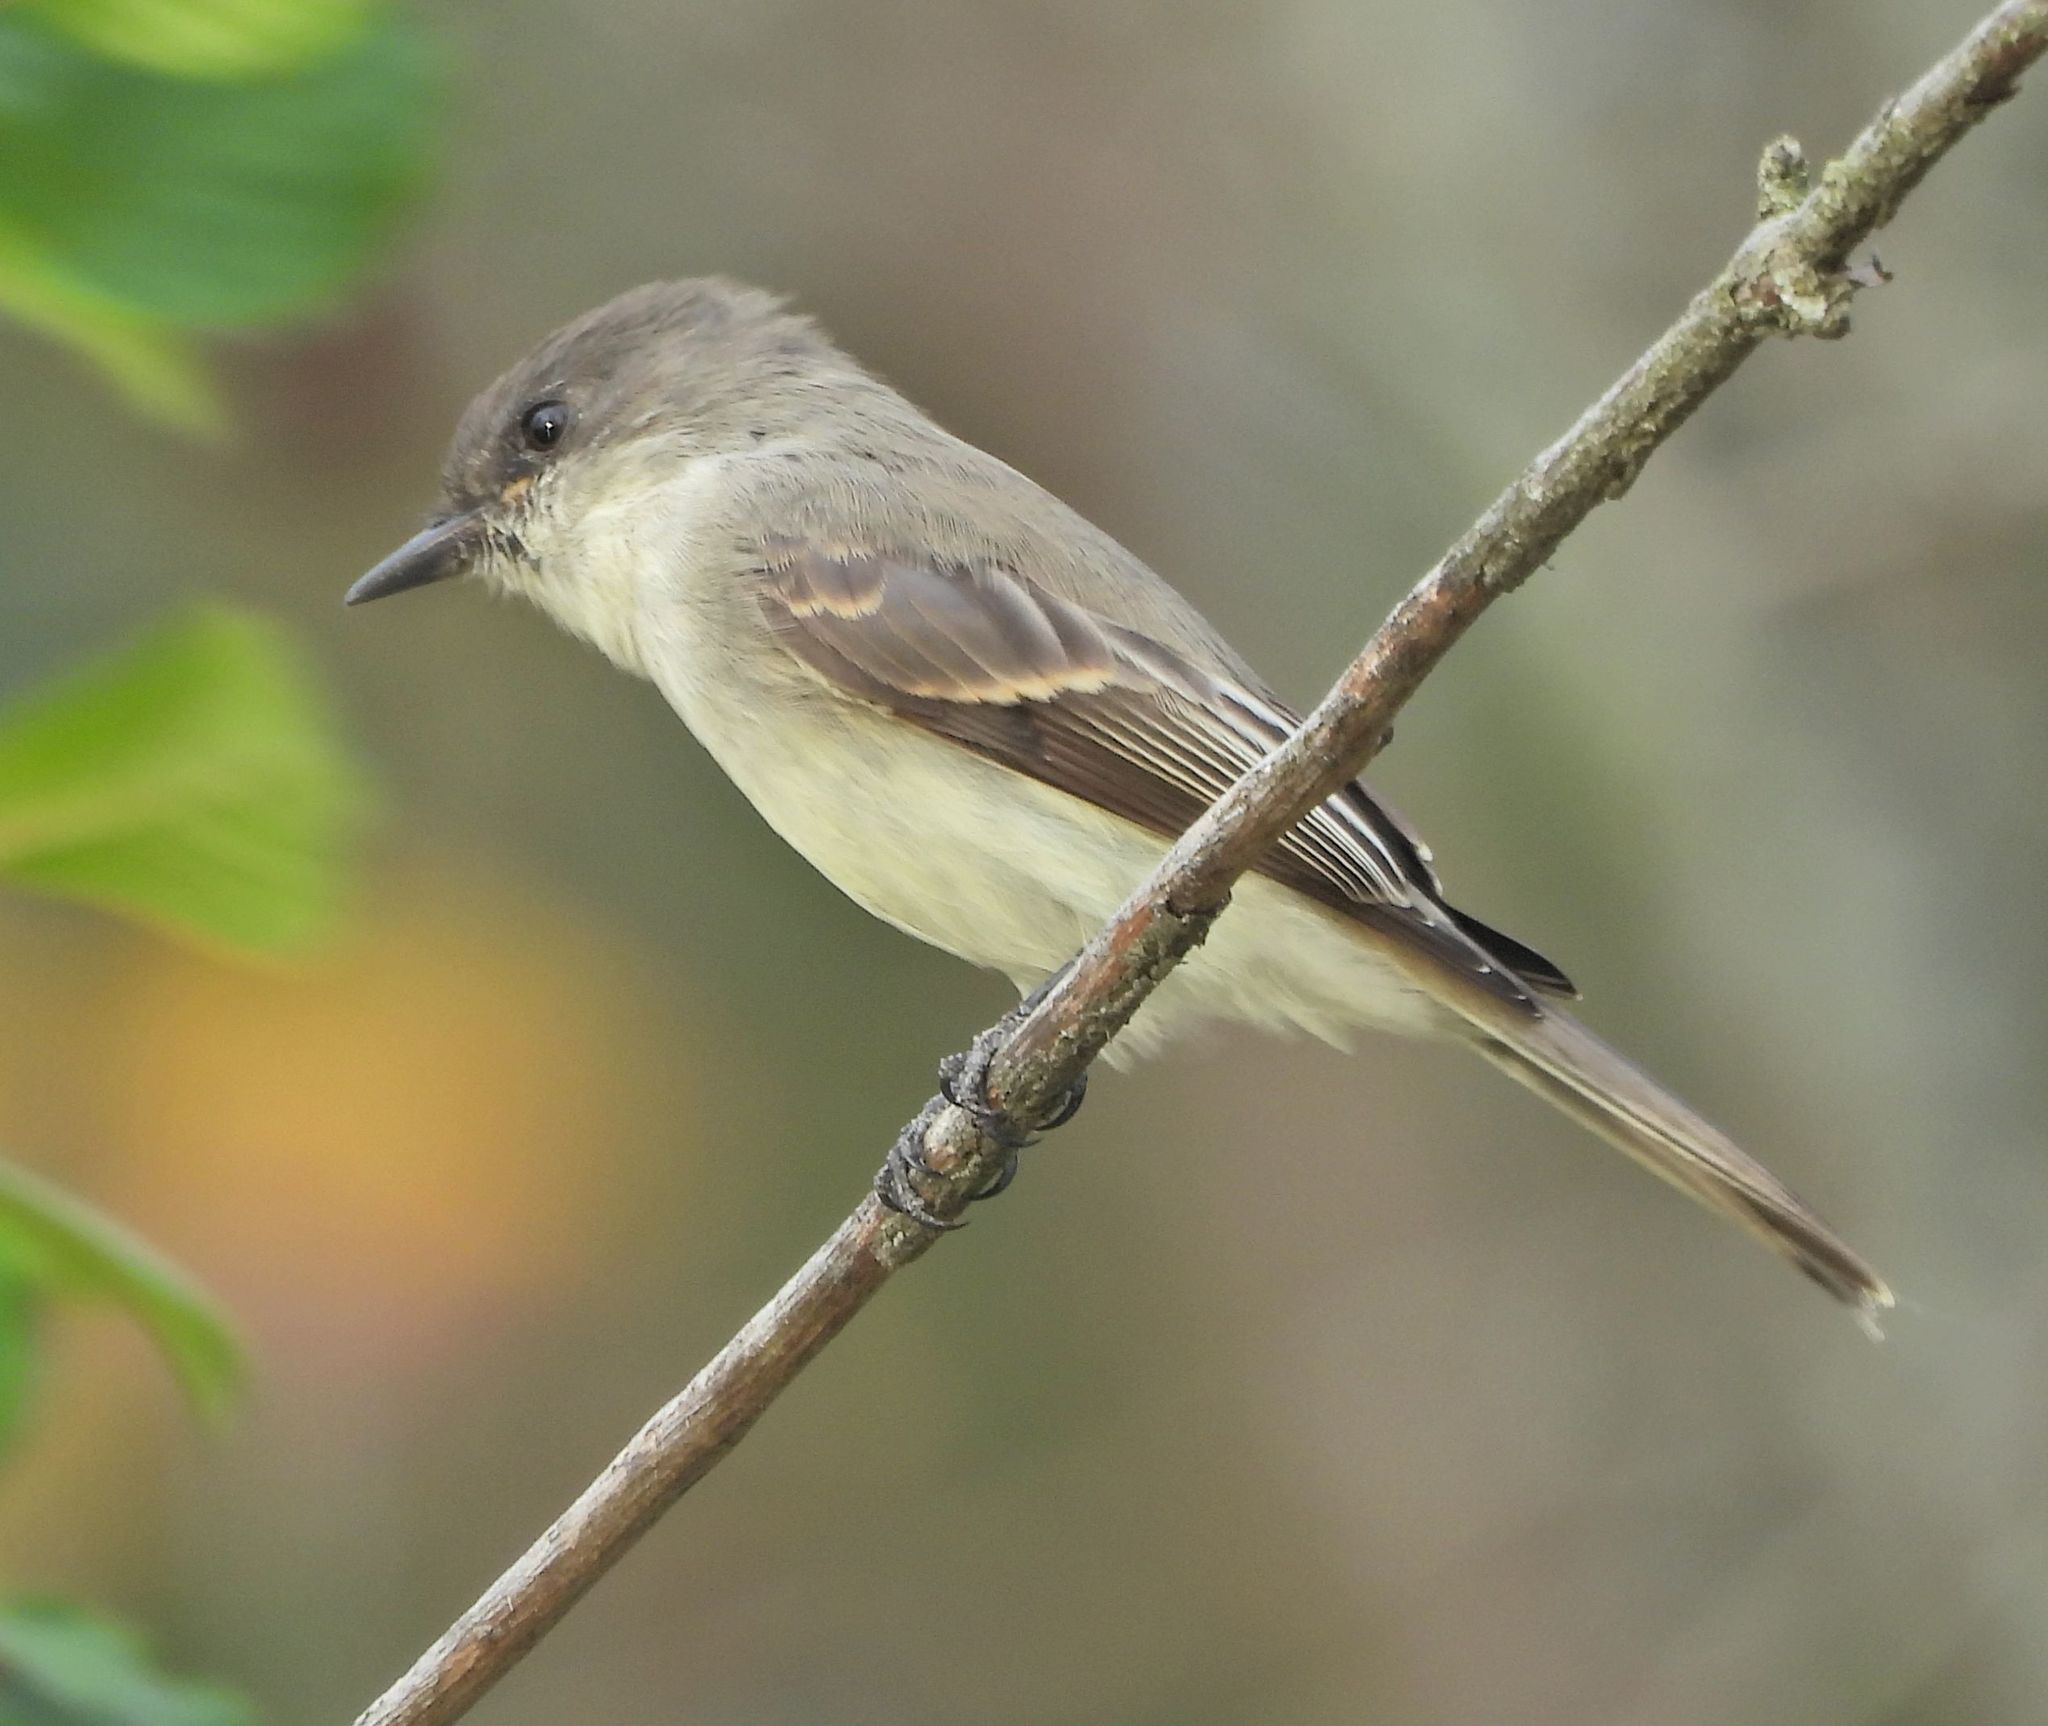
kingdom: Animalia
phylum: Chordata
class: Aves
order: Passeriformes
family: Tyrannidae
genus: Sayornis
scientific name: Sayornis phoebe
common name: Eastern phoebe
